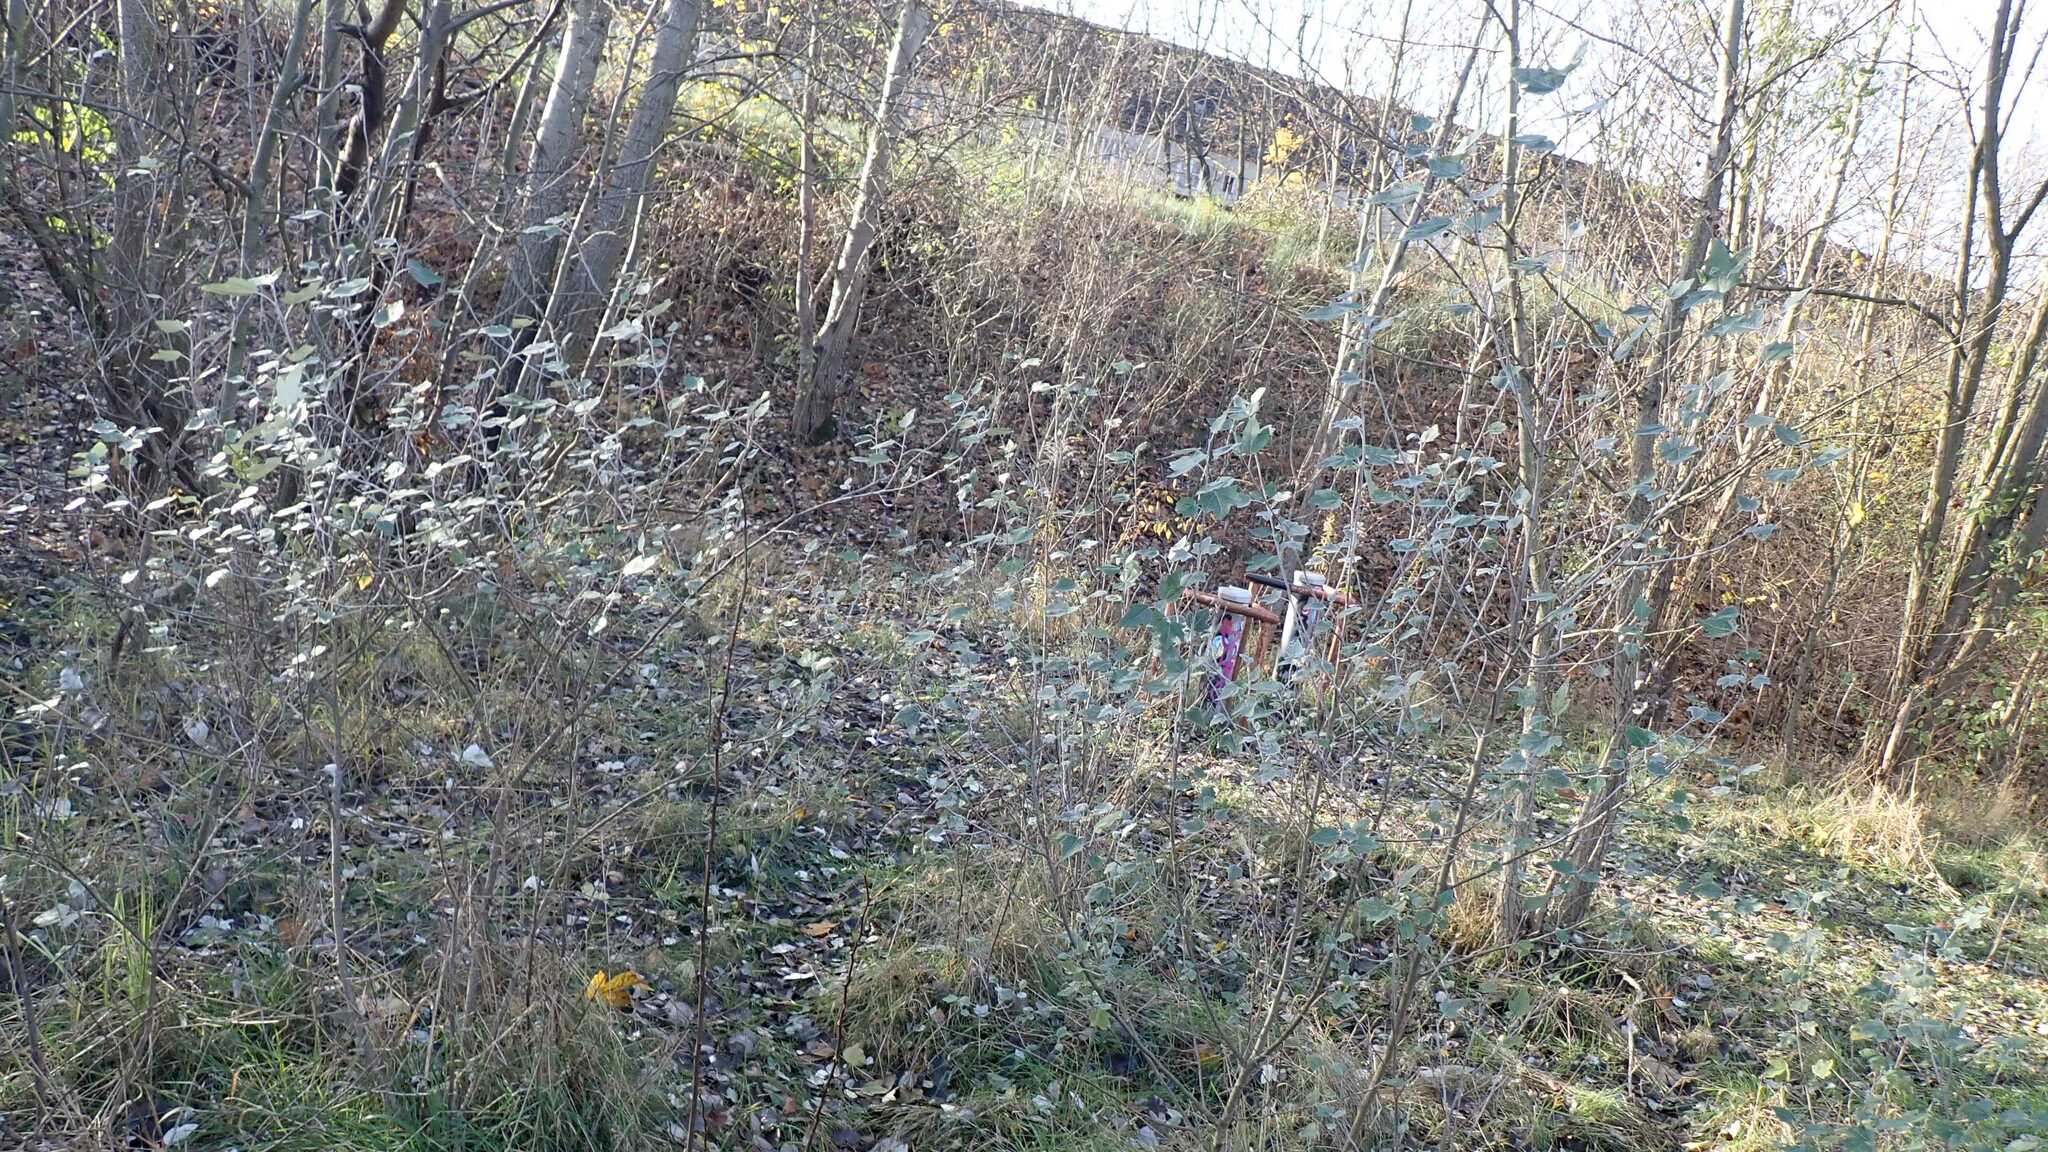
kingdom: Animalia
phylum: Arthropoda
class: Insecta
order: Hemiptera
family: Cicadellidae
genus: Zygina
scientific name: Zygina nivea
